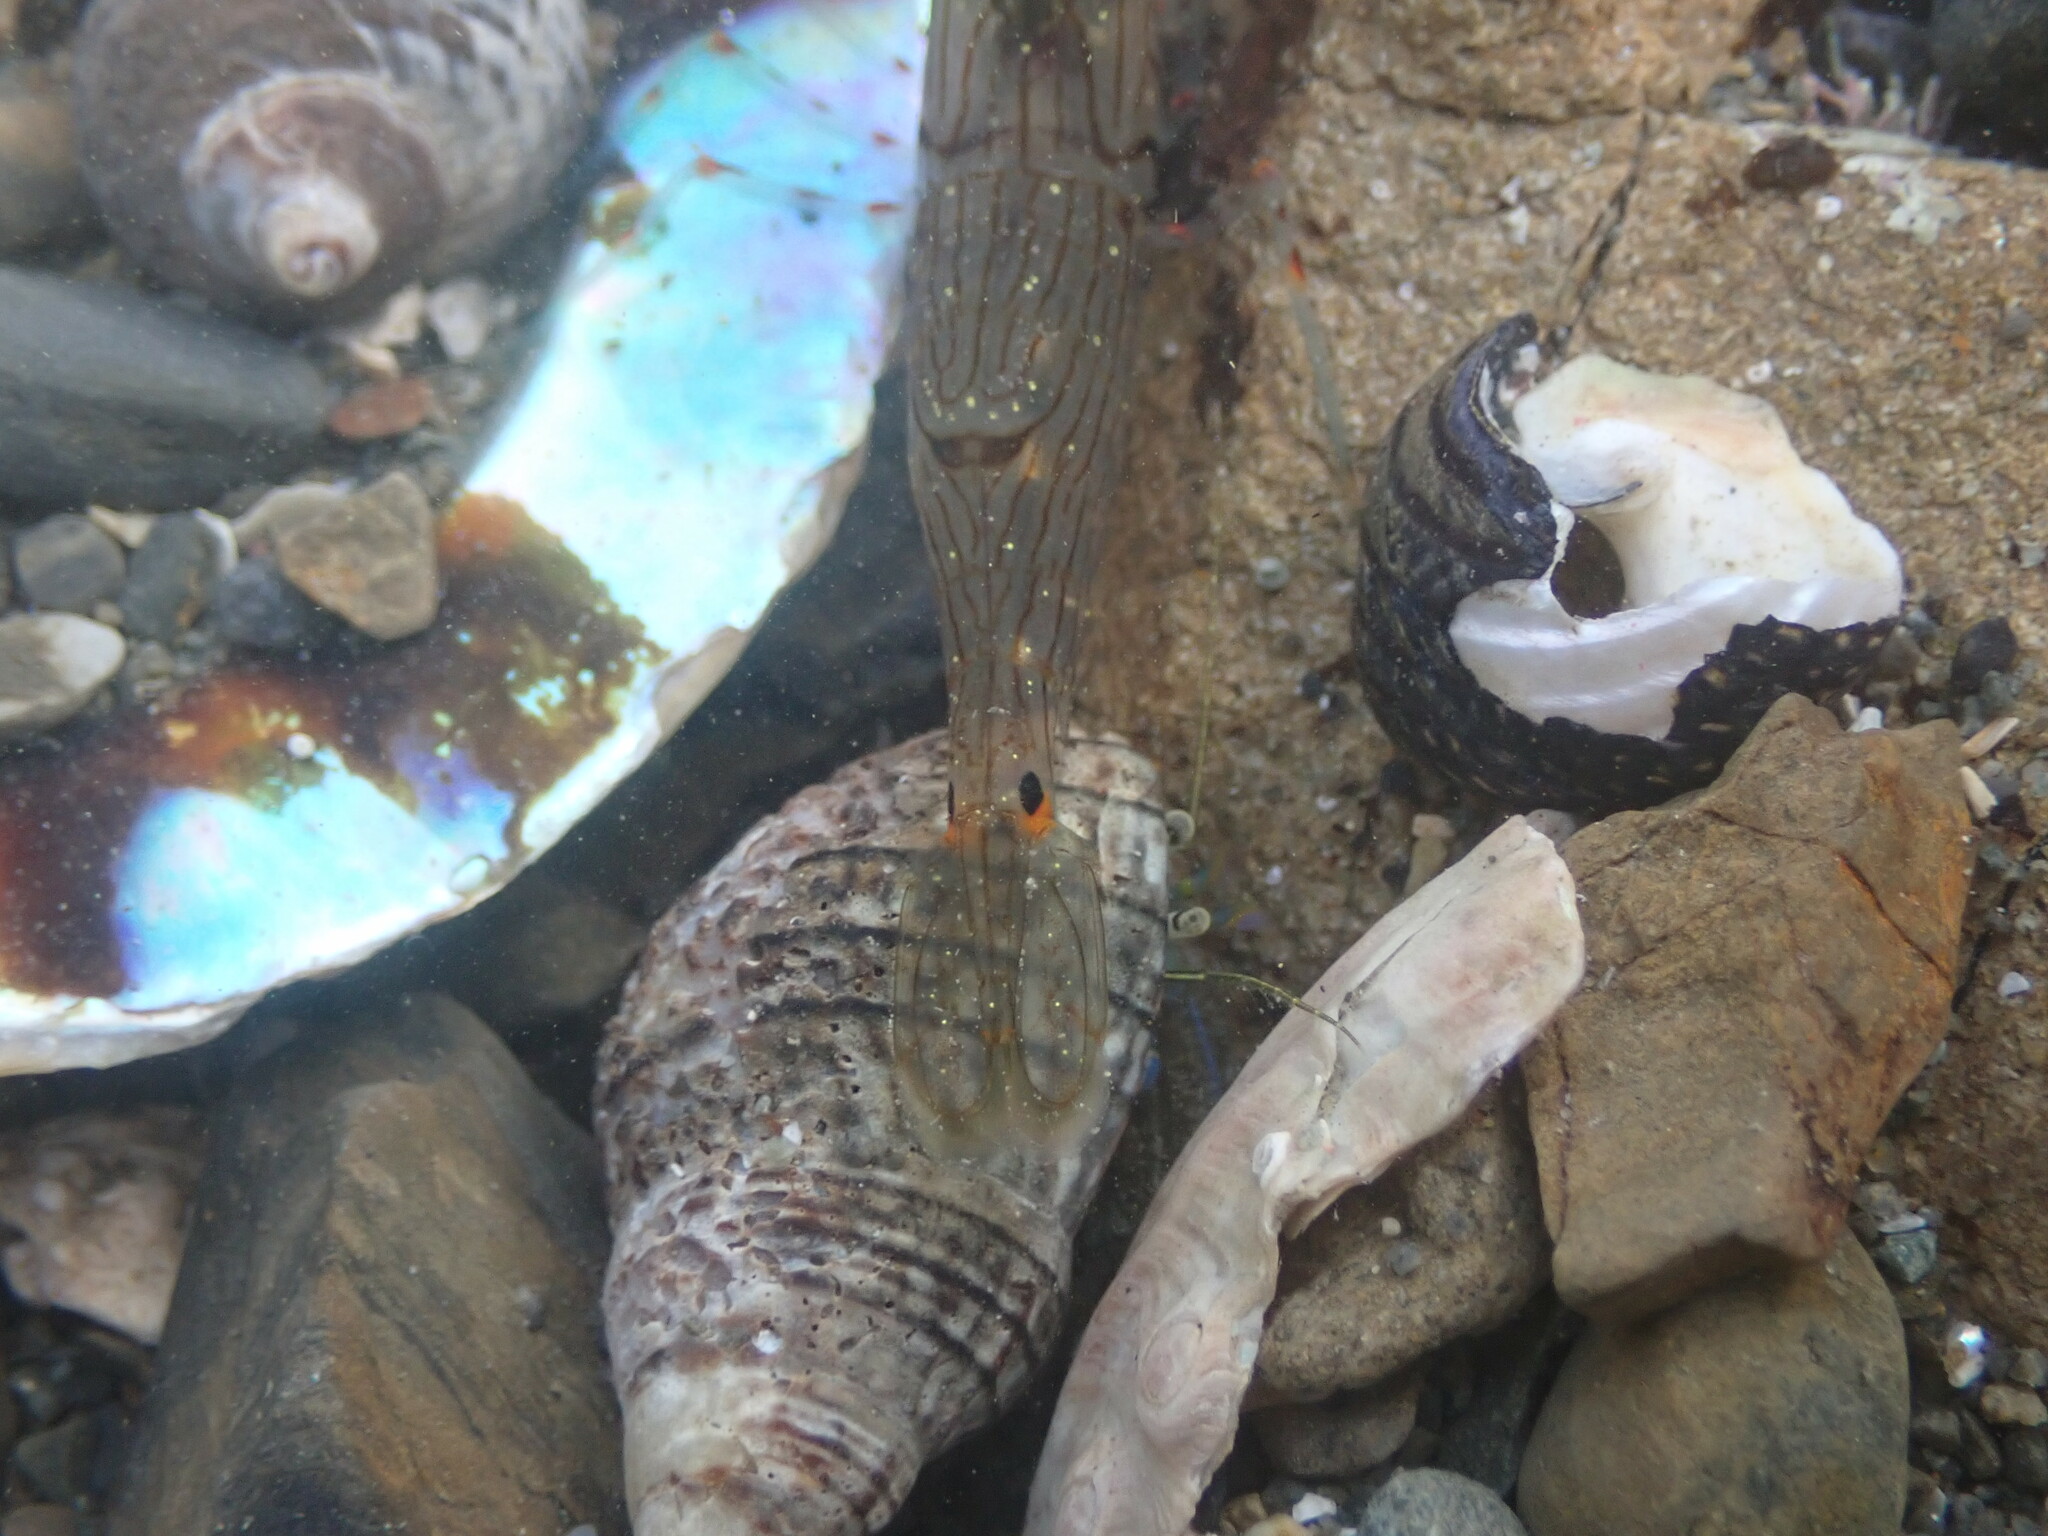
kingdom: Animalia
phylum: Arthropoda
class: Malacostraca
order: Decapoda
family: Palaemonidae
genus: Palaemon
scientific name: Palaemon affinis
